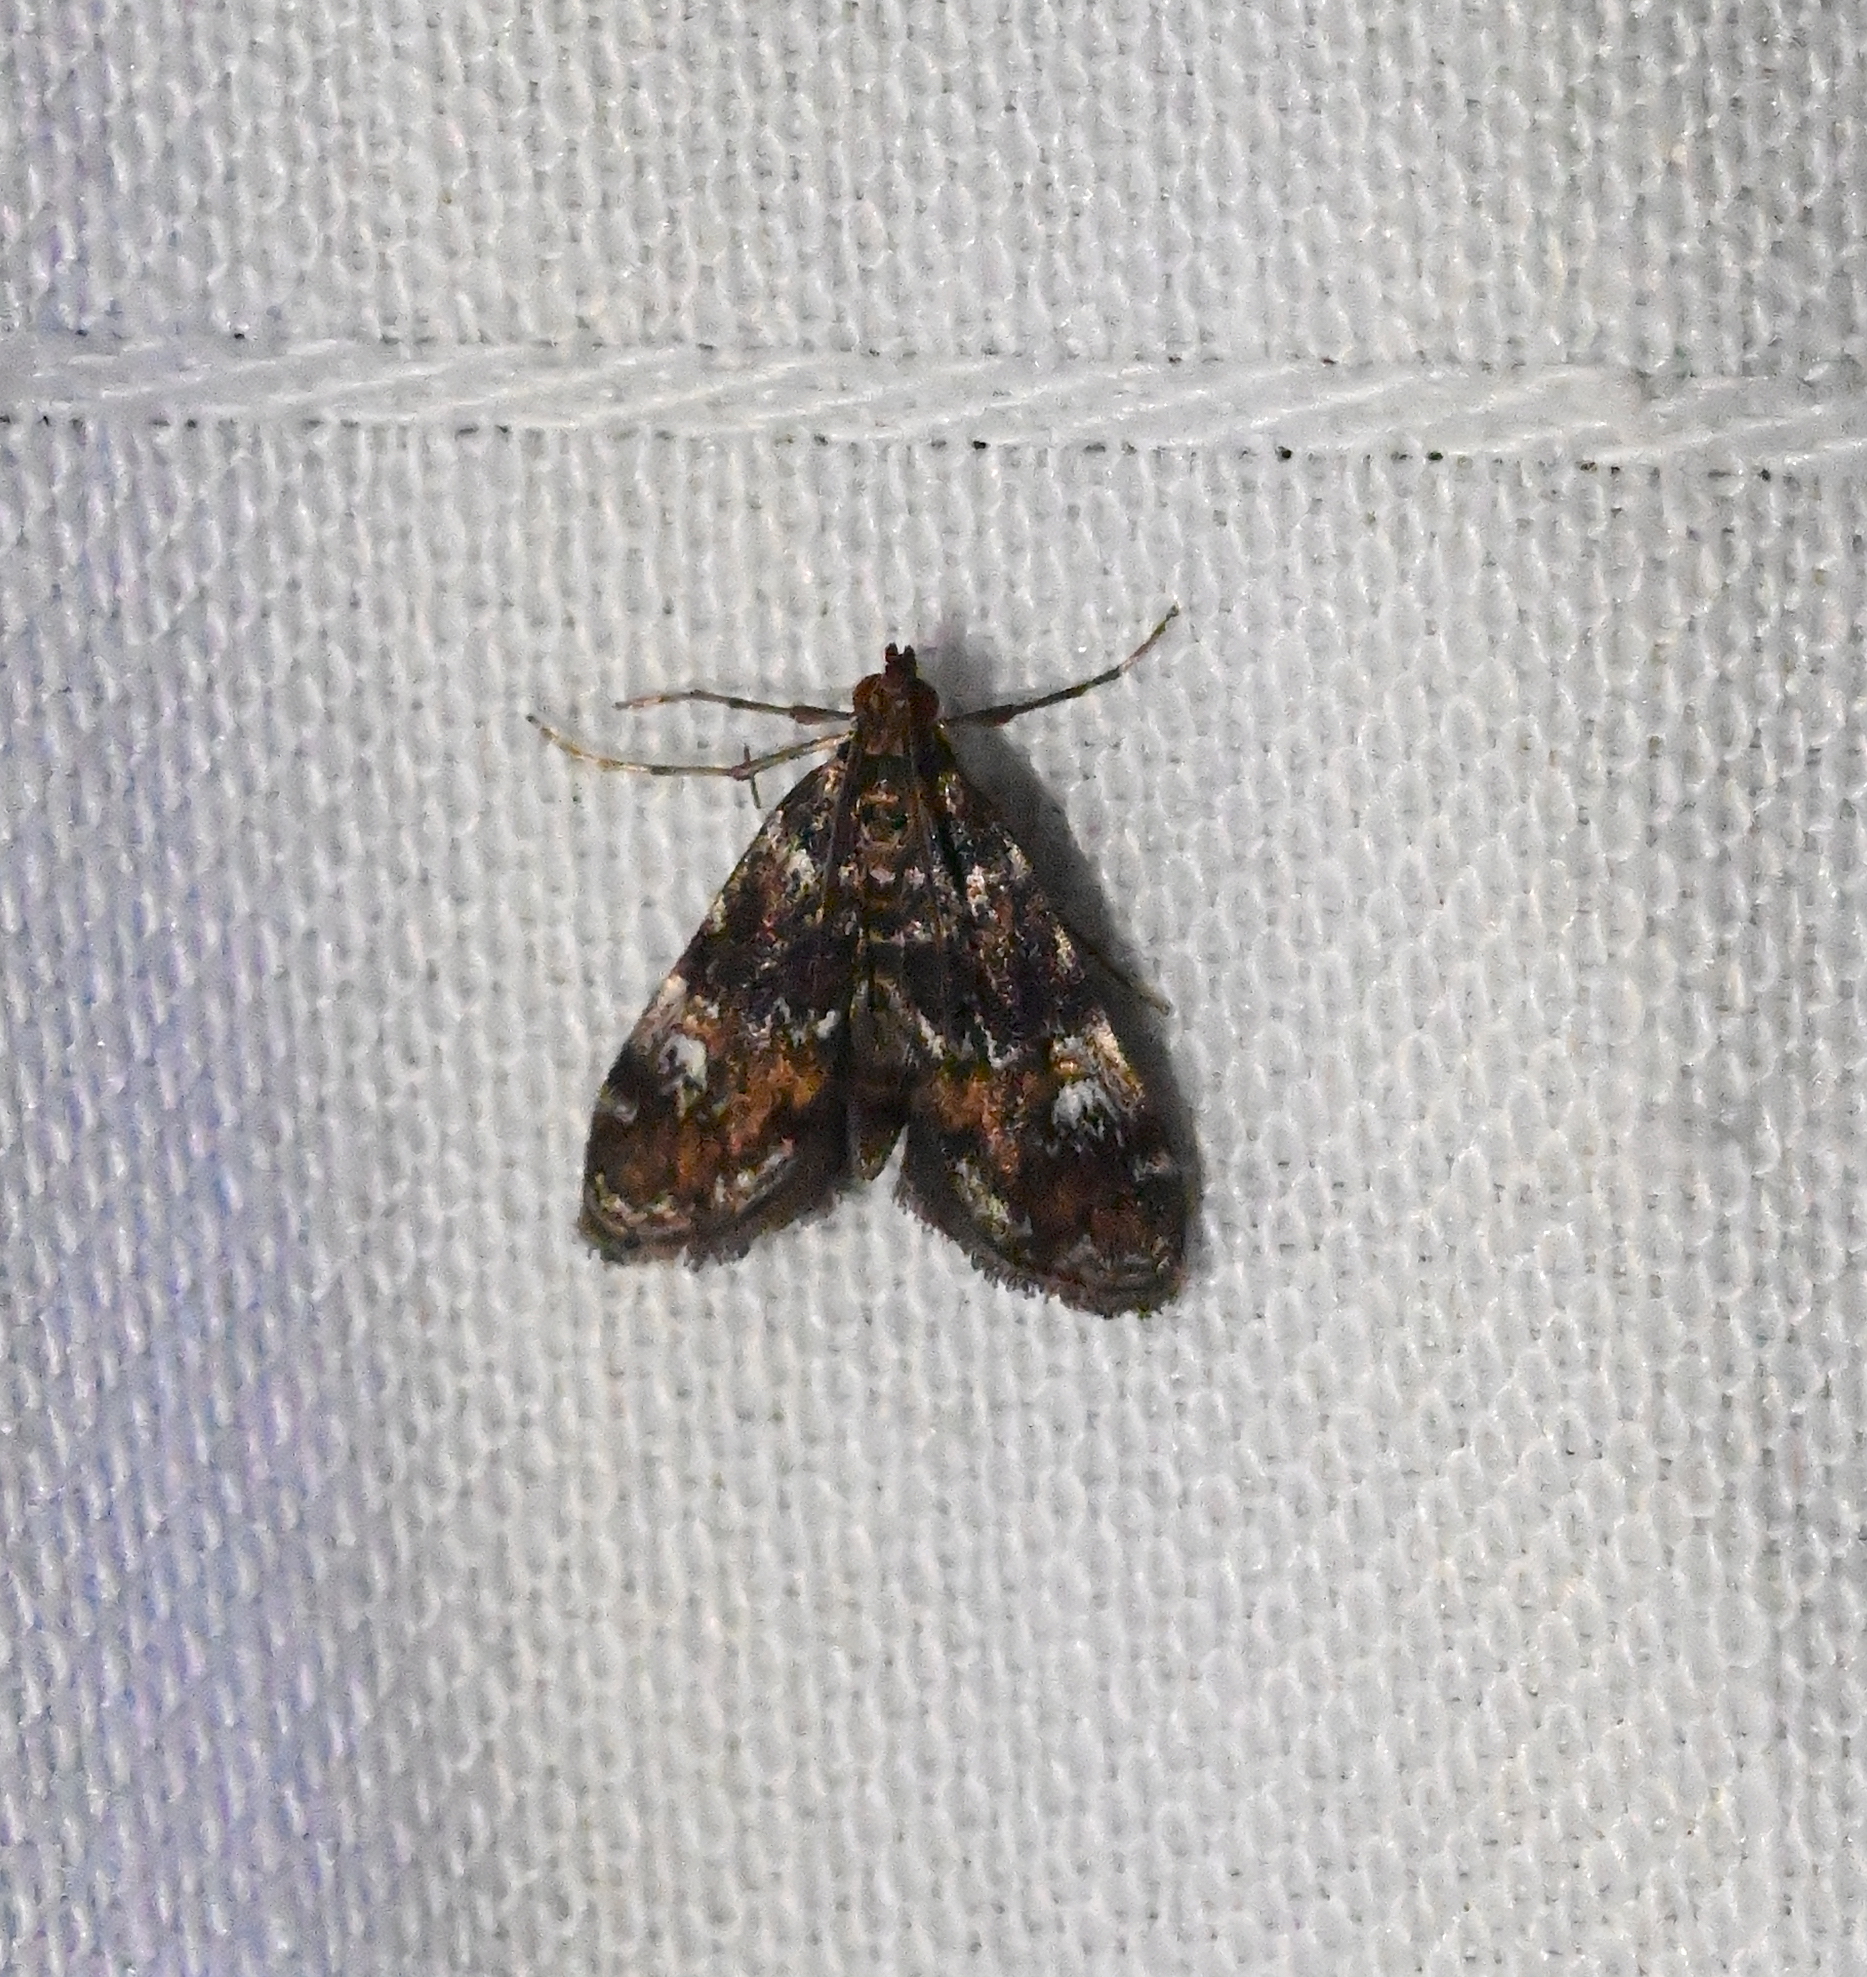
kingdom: Animalia
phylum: Arthropoda
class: Insecta
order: Lepidoptera
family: Crambidae
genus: Elophila
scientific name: Elophila obliteralis
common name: Waterlily leafcutter moth
